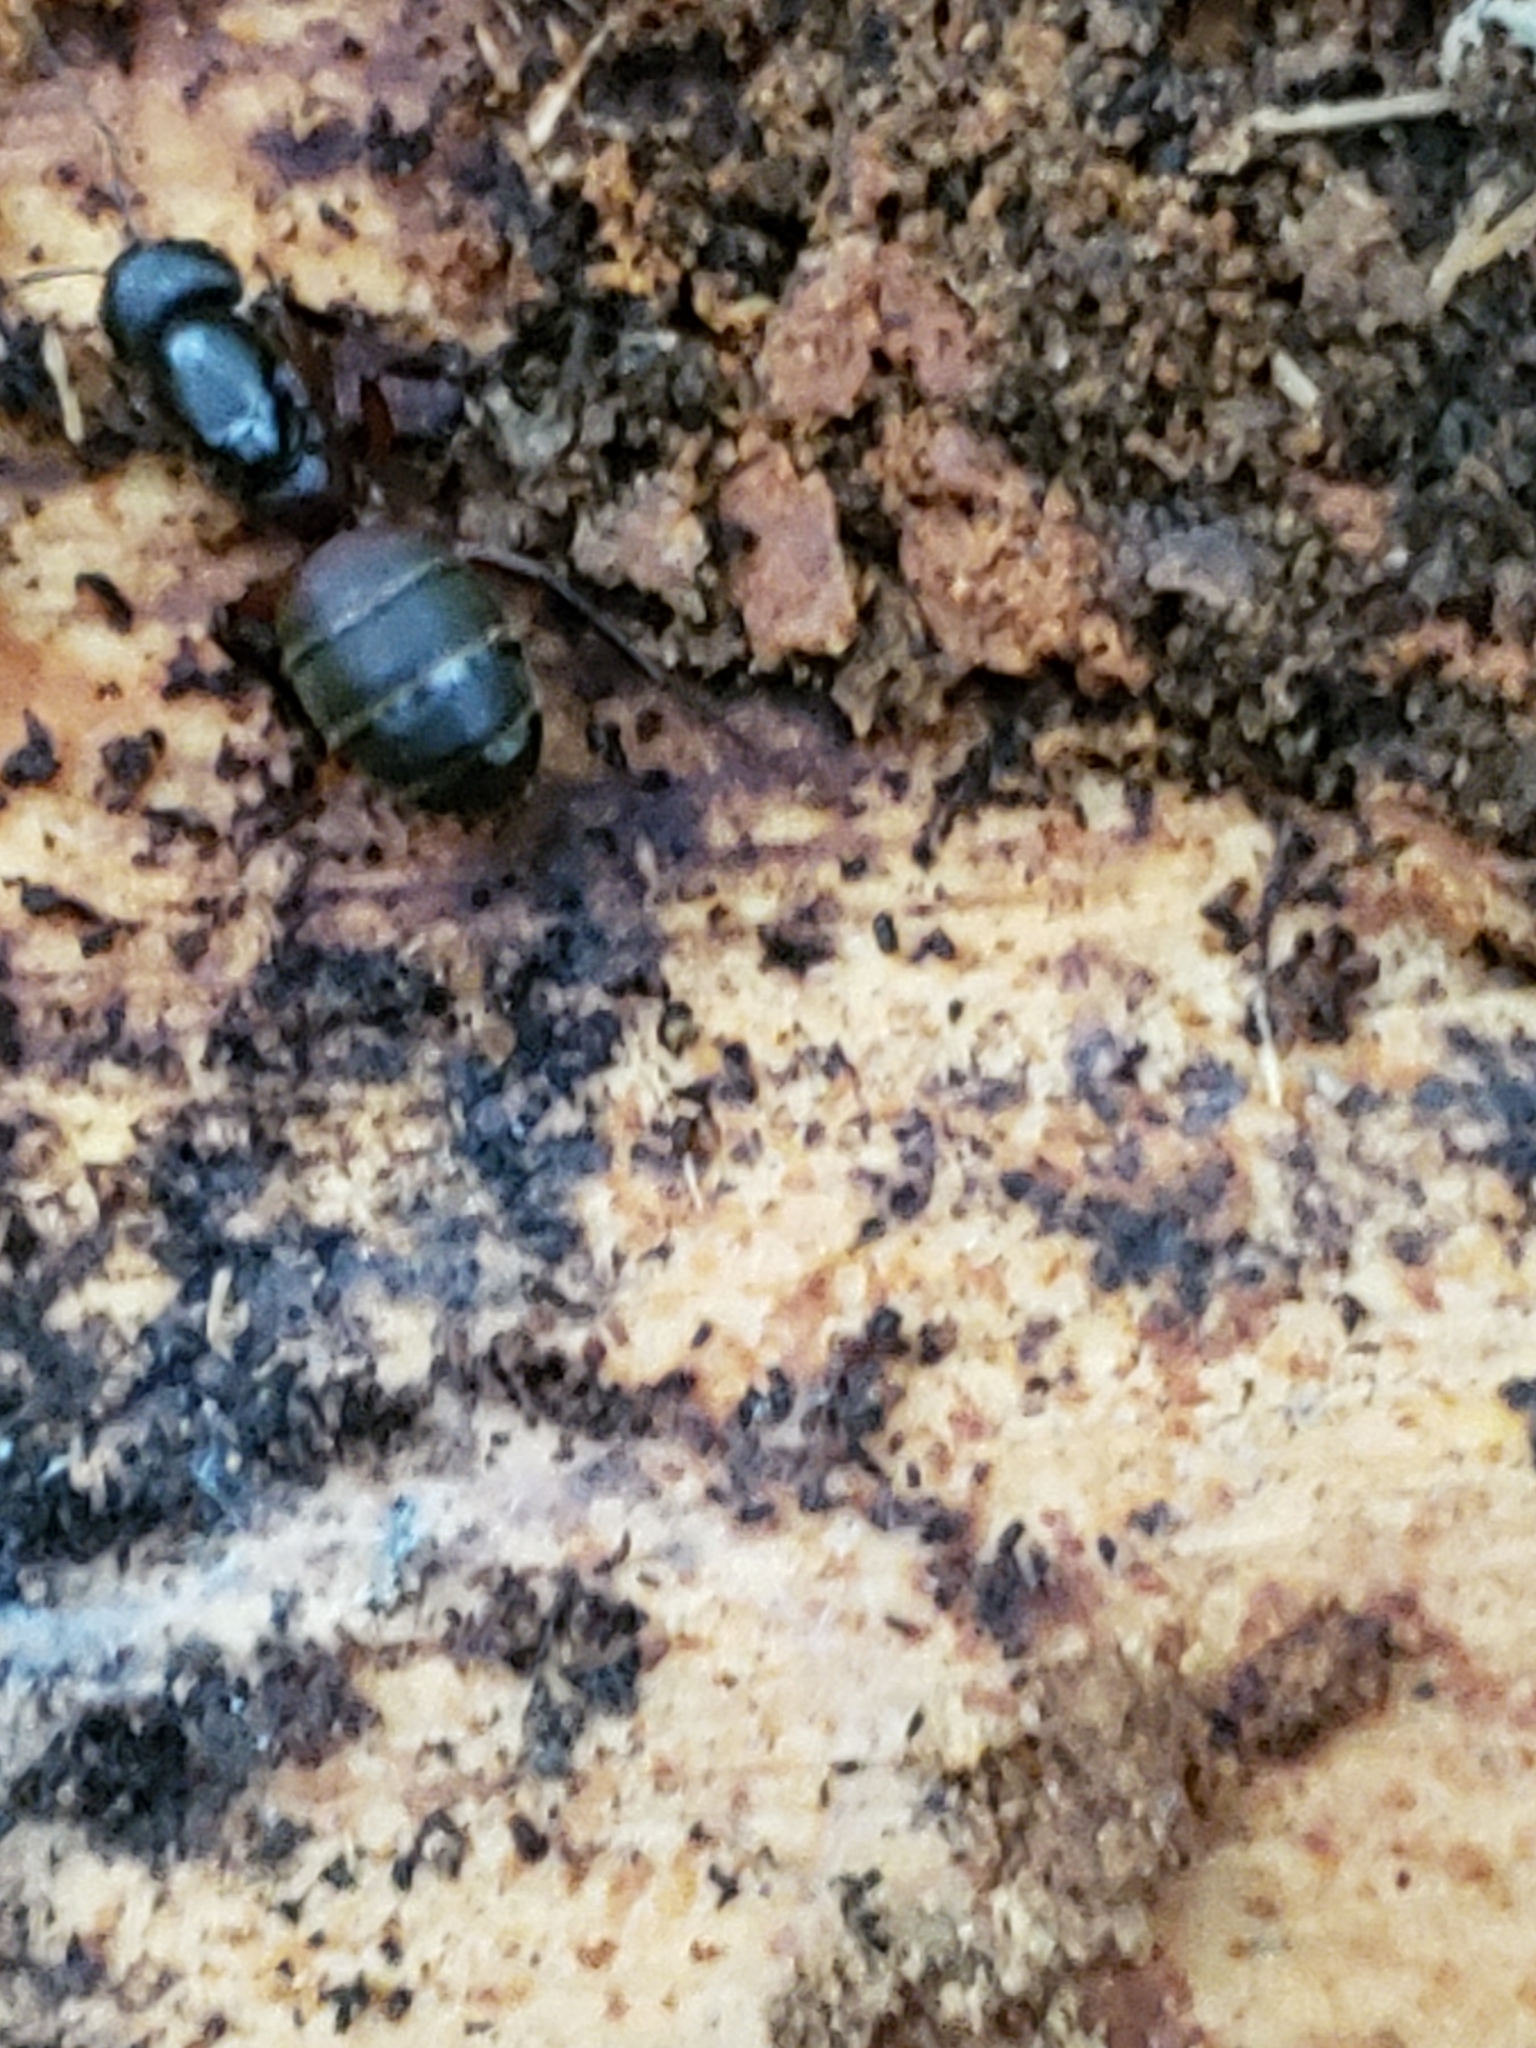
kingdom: Animalia
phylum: Arthropoda
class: Insecta
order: Hymenoptera
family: Formicidae
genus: Camponotus
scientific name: Camponotus chromaiodes
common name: Red carpenter ant
